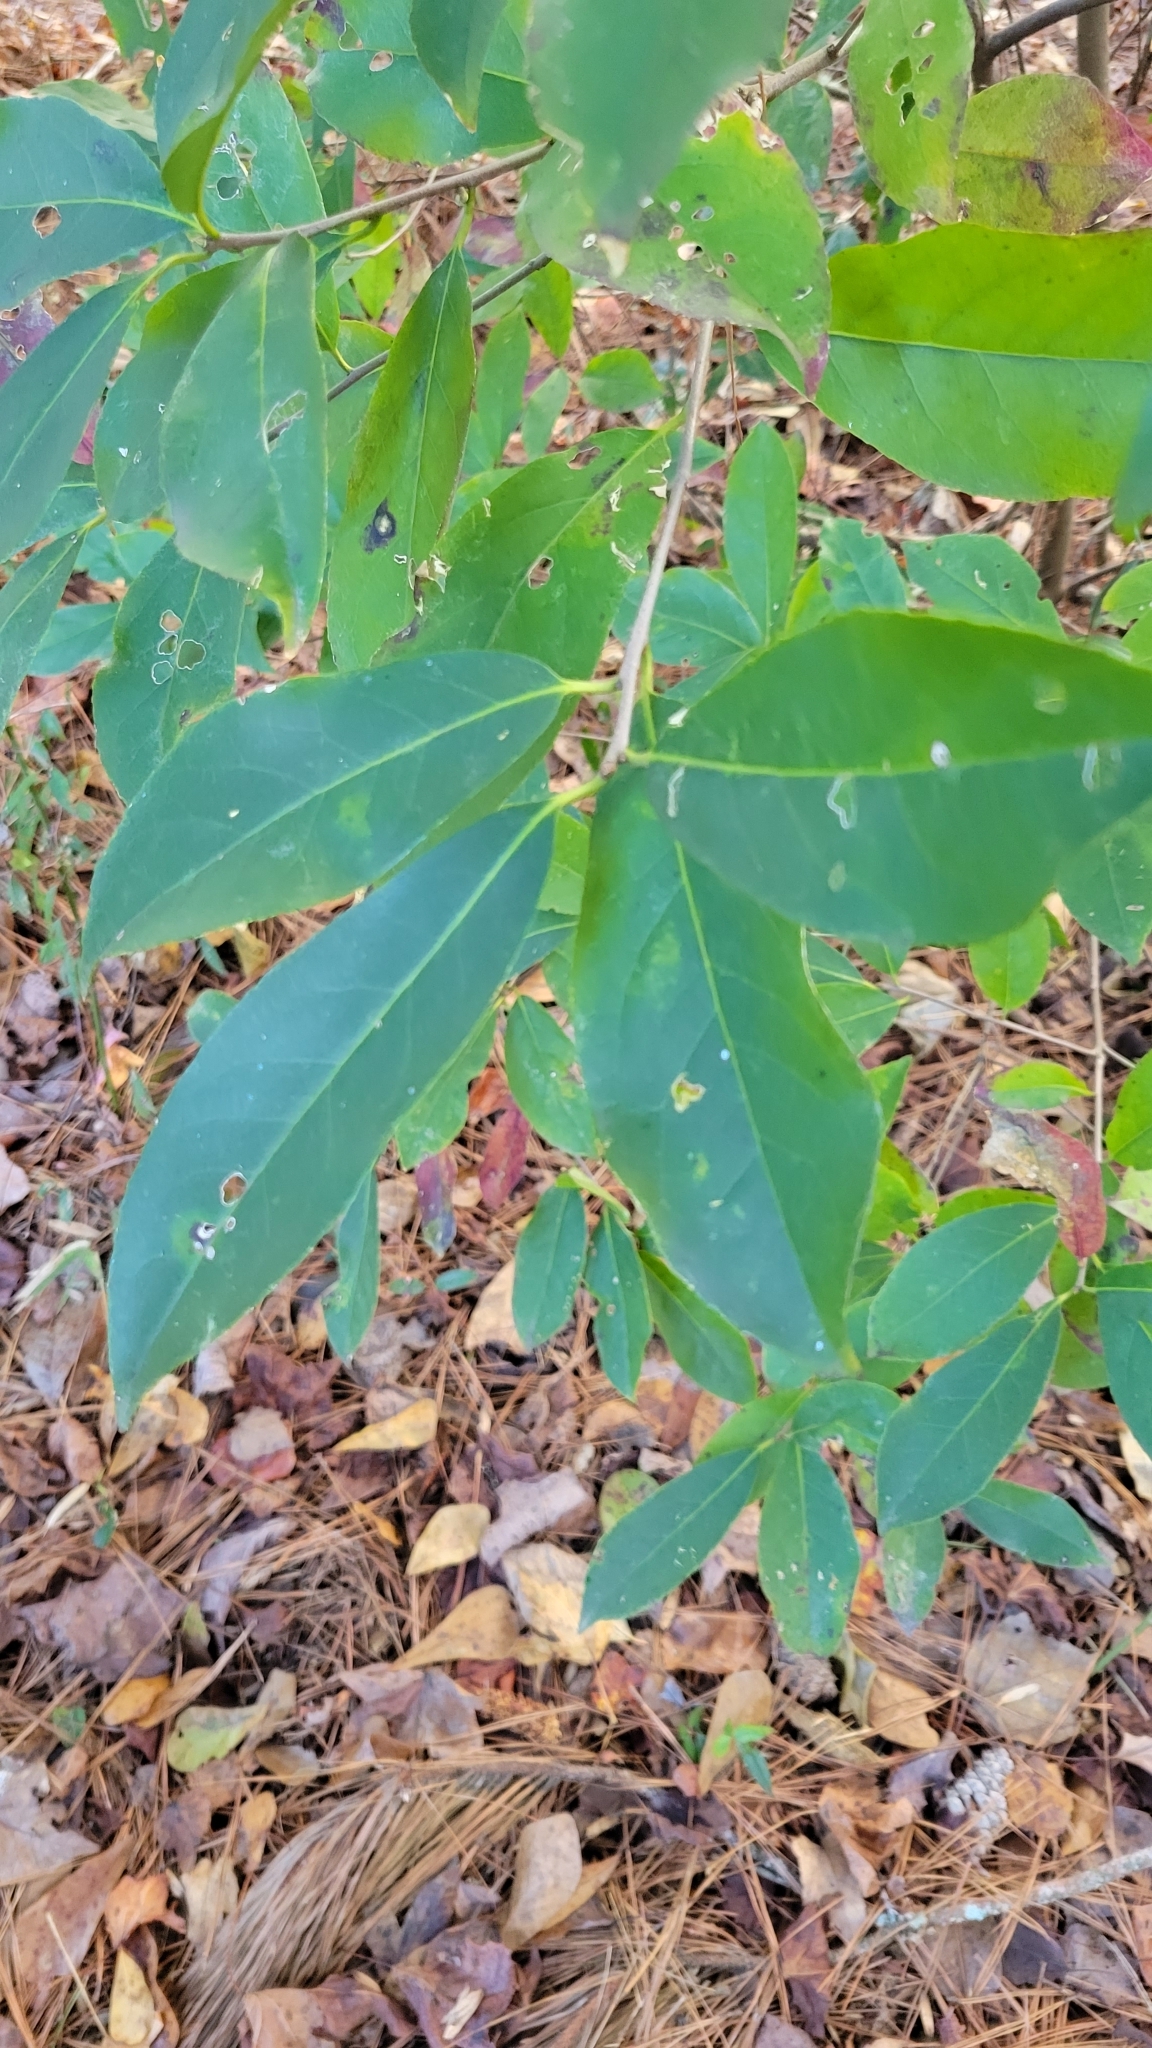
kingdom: Plantae
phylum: Tracheophyta
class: Magnoliopsida
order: Ericales
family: Symplocaceae
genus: Symplocos
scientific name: Symplocos tinctoria
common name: Horse-sugar
